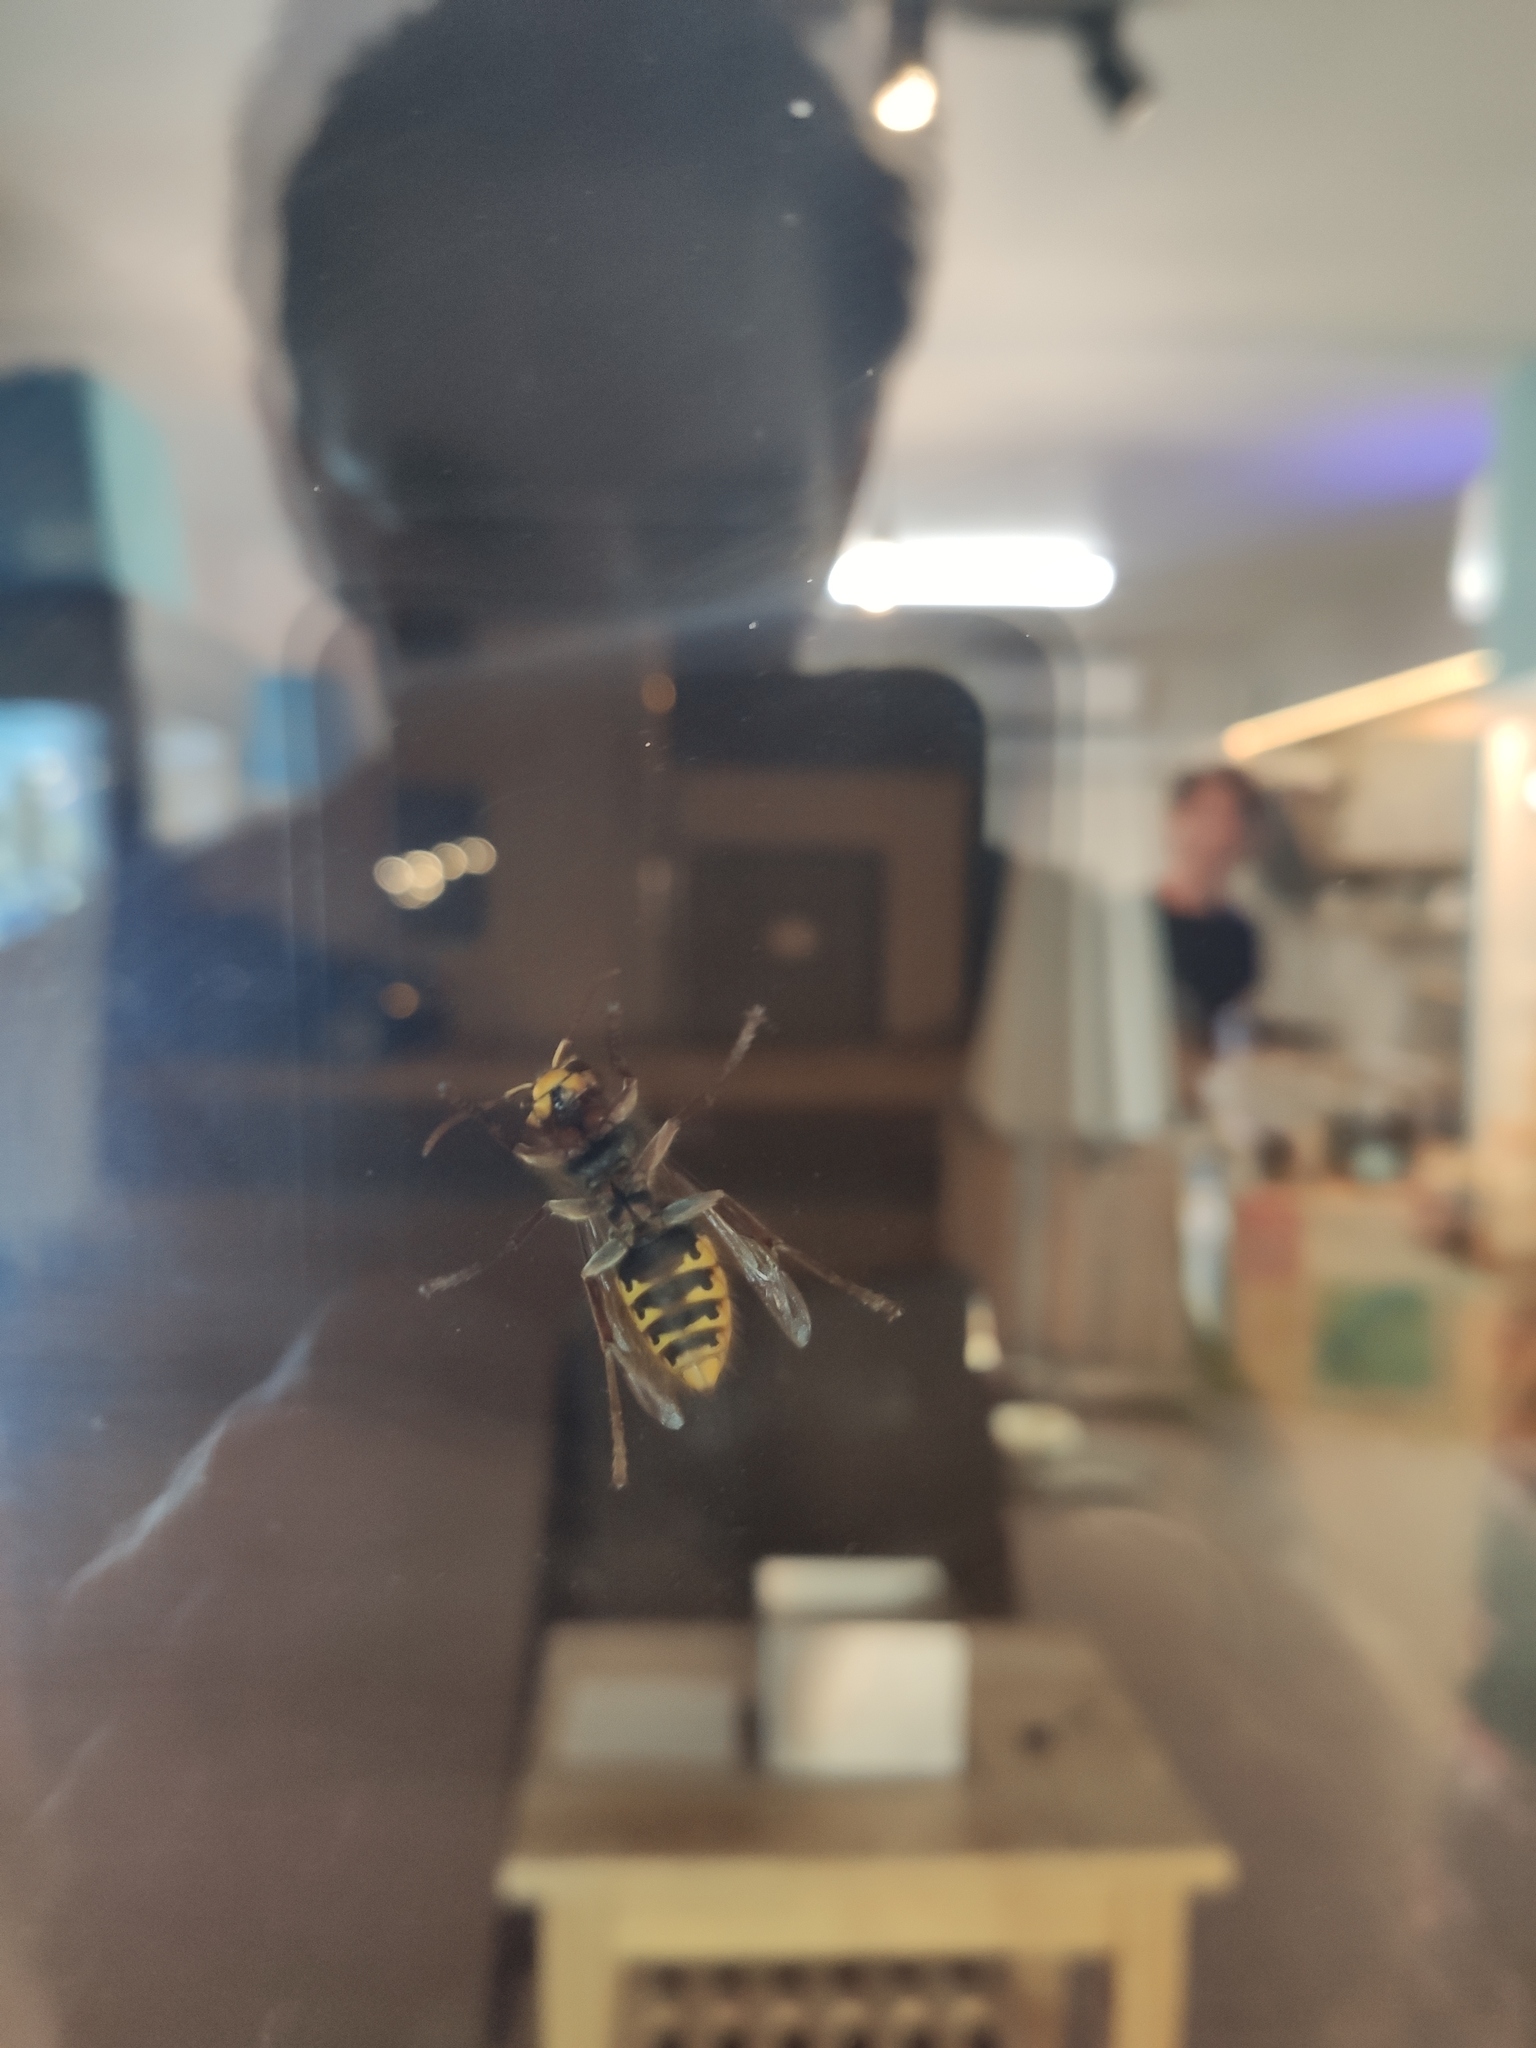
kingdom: Animalia
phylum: Arthropoda
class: Insecta
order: Hymenoptera
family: Vespidae
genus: Vespa
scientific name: Vespa crabro
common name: Hornet
